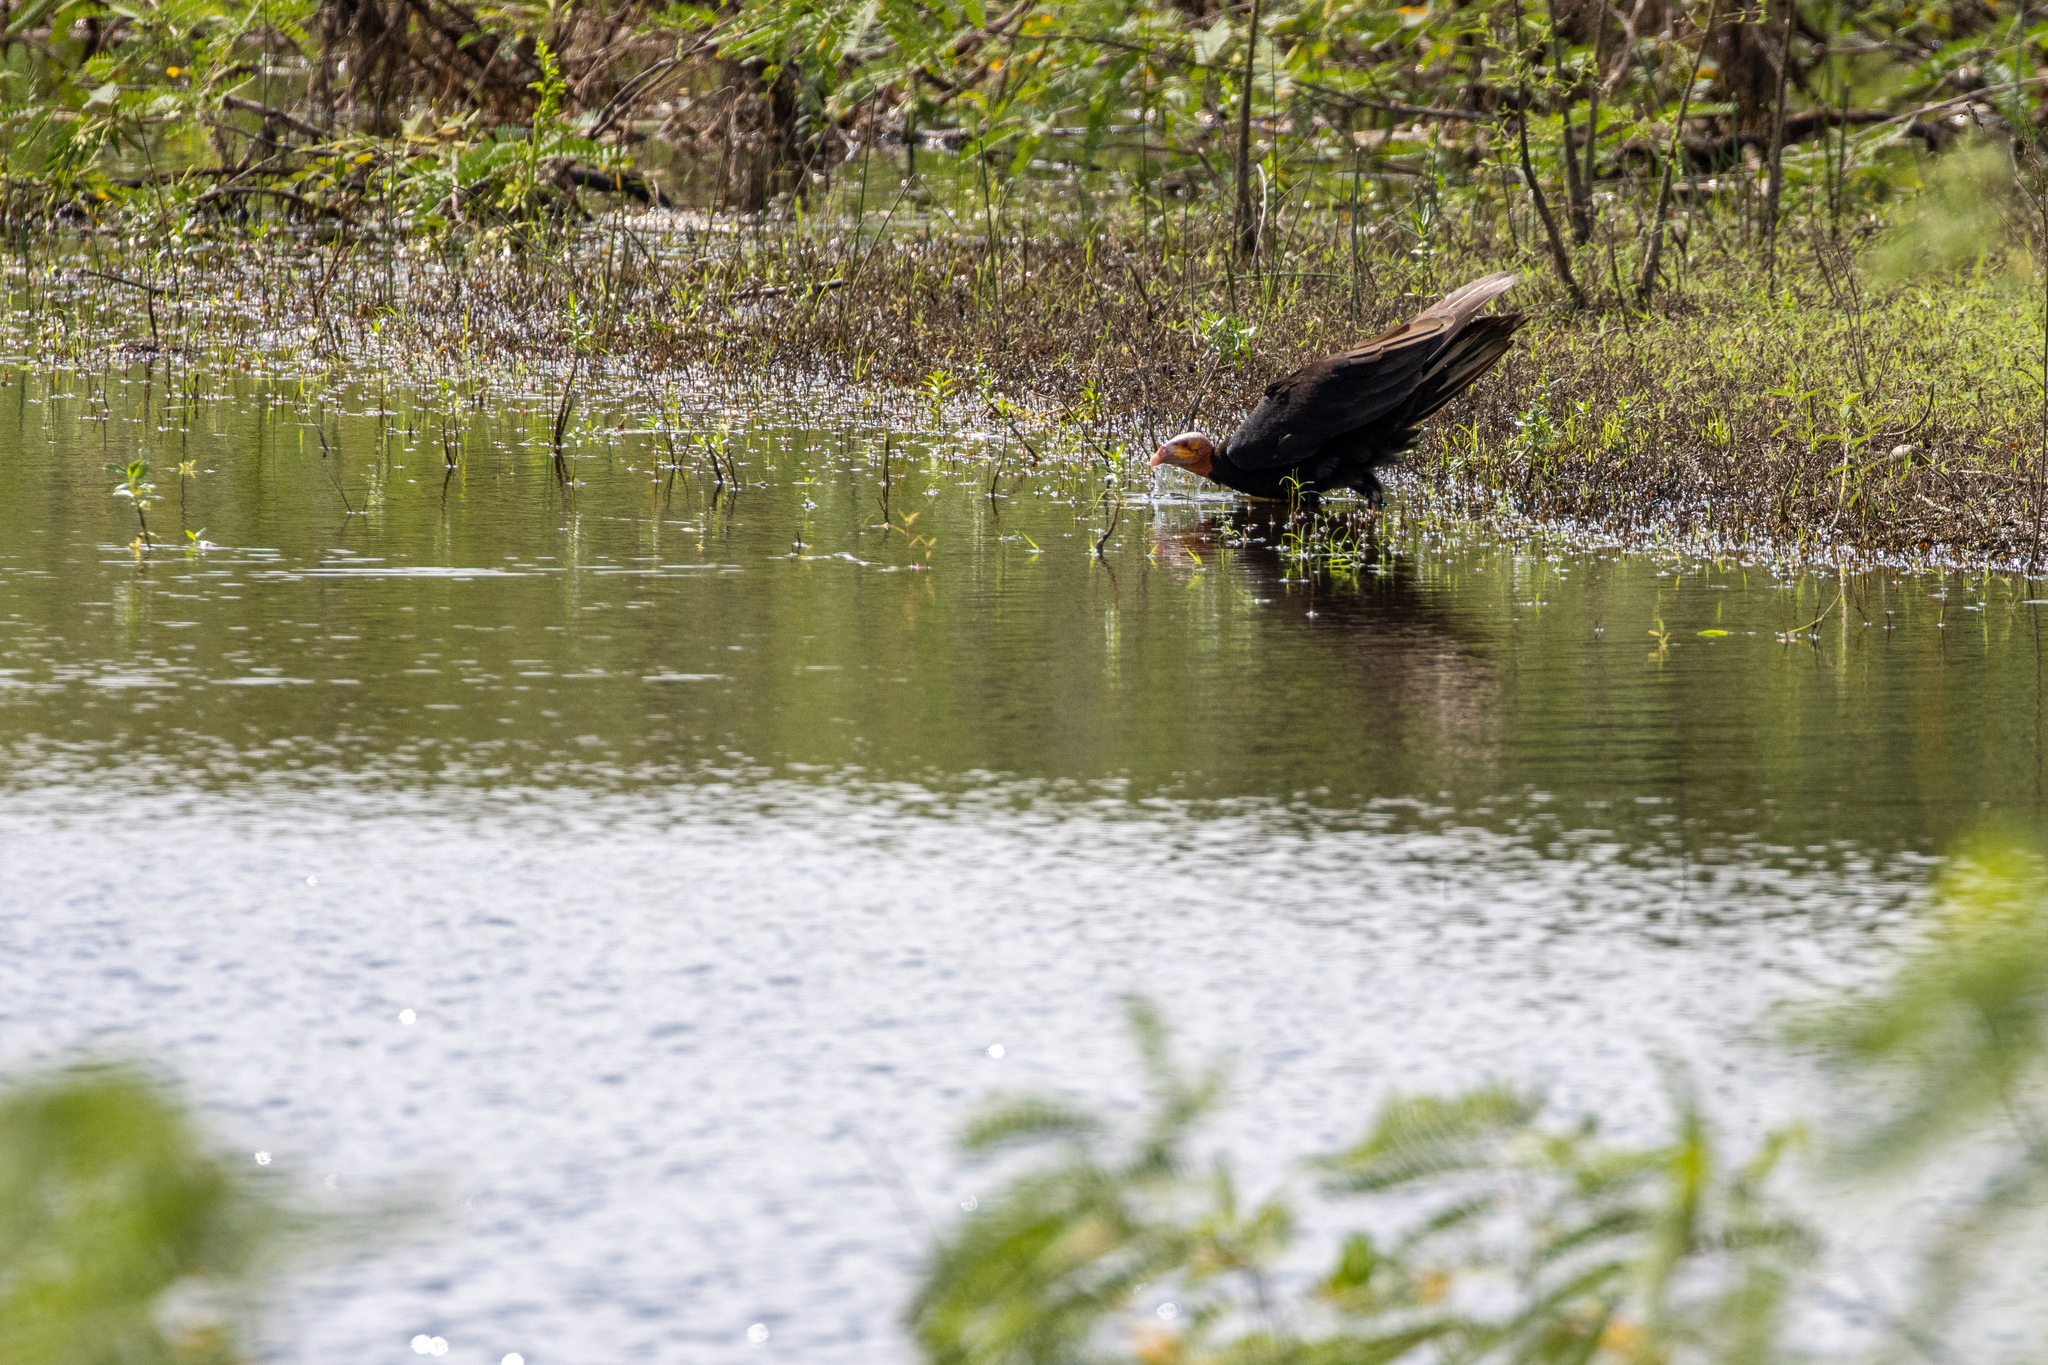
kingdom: Animalia
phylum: Chordata
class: Aves
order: Accipitriformes
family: Cathartidae
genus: Cathartes
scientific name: Cathartes burrovianus
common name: Lesser yellow-headed vulture
